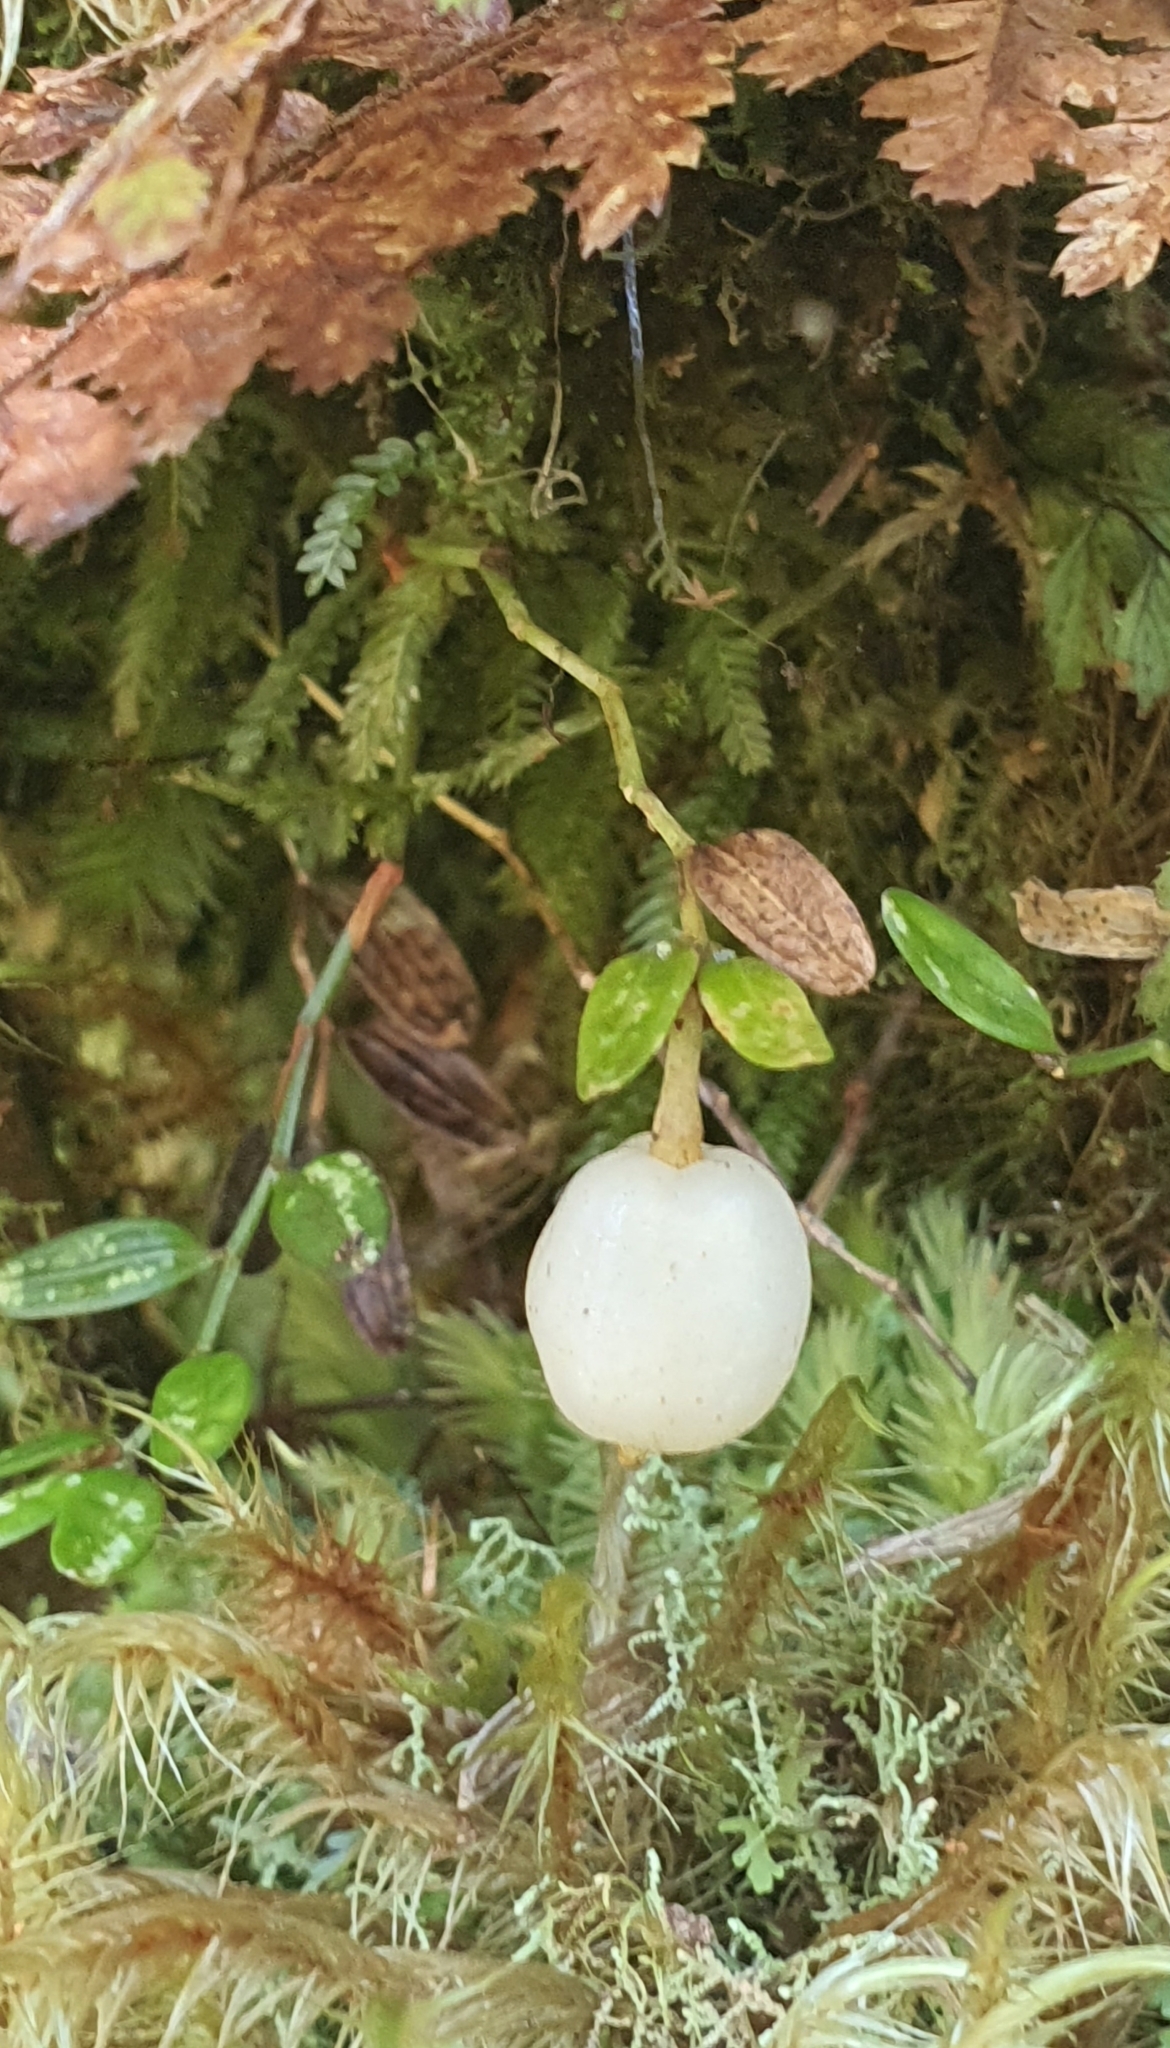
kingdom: Plantae
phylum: Tracheophyta
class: Liliopsida
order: Liliales
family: Alstroemeriaceae
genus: Luzuriaga
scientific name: Luzuriaga parviflora
